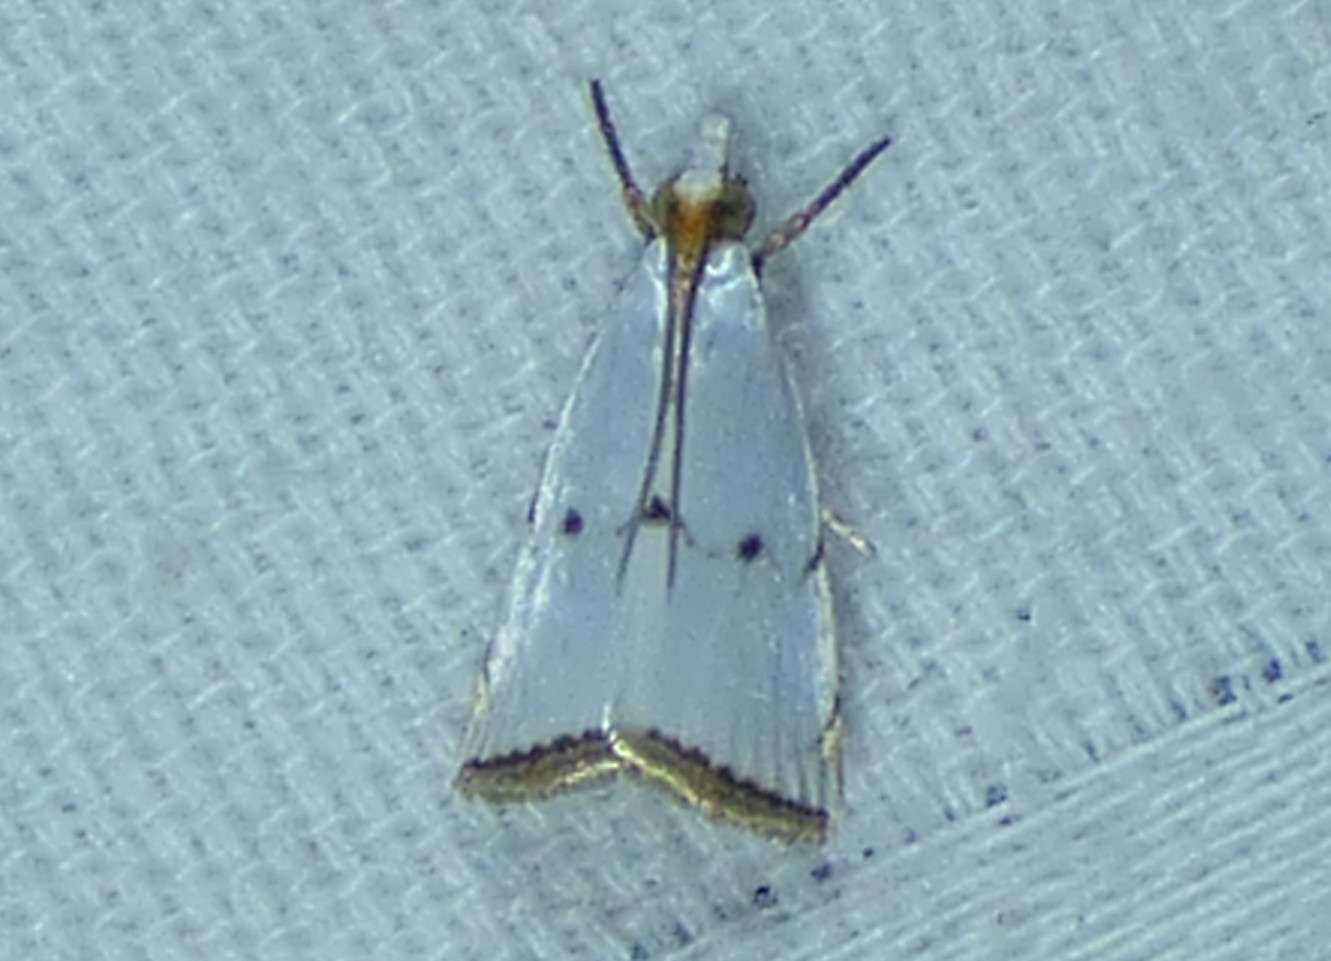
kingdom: Animalia
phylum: Arthropoda
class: Insecta
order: Lepidoptera
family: Crambidae
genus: Argyria
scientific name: Argyria pusillalis
